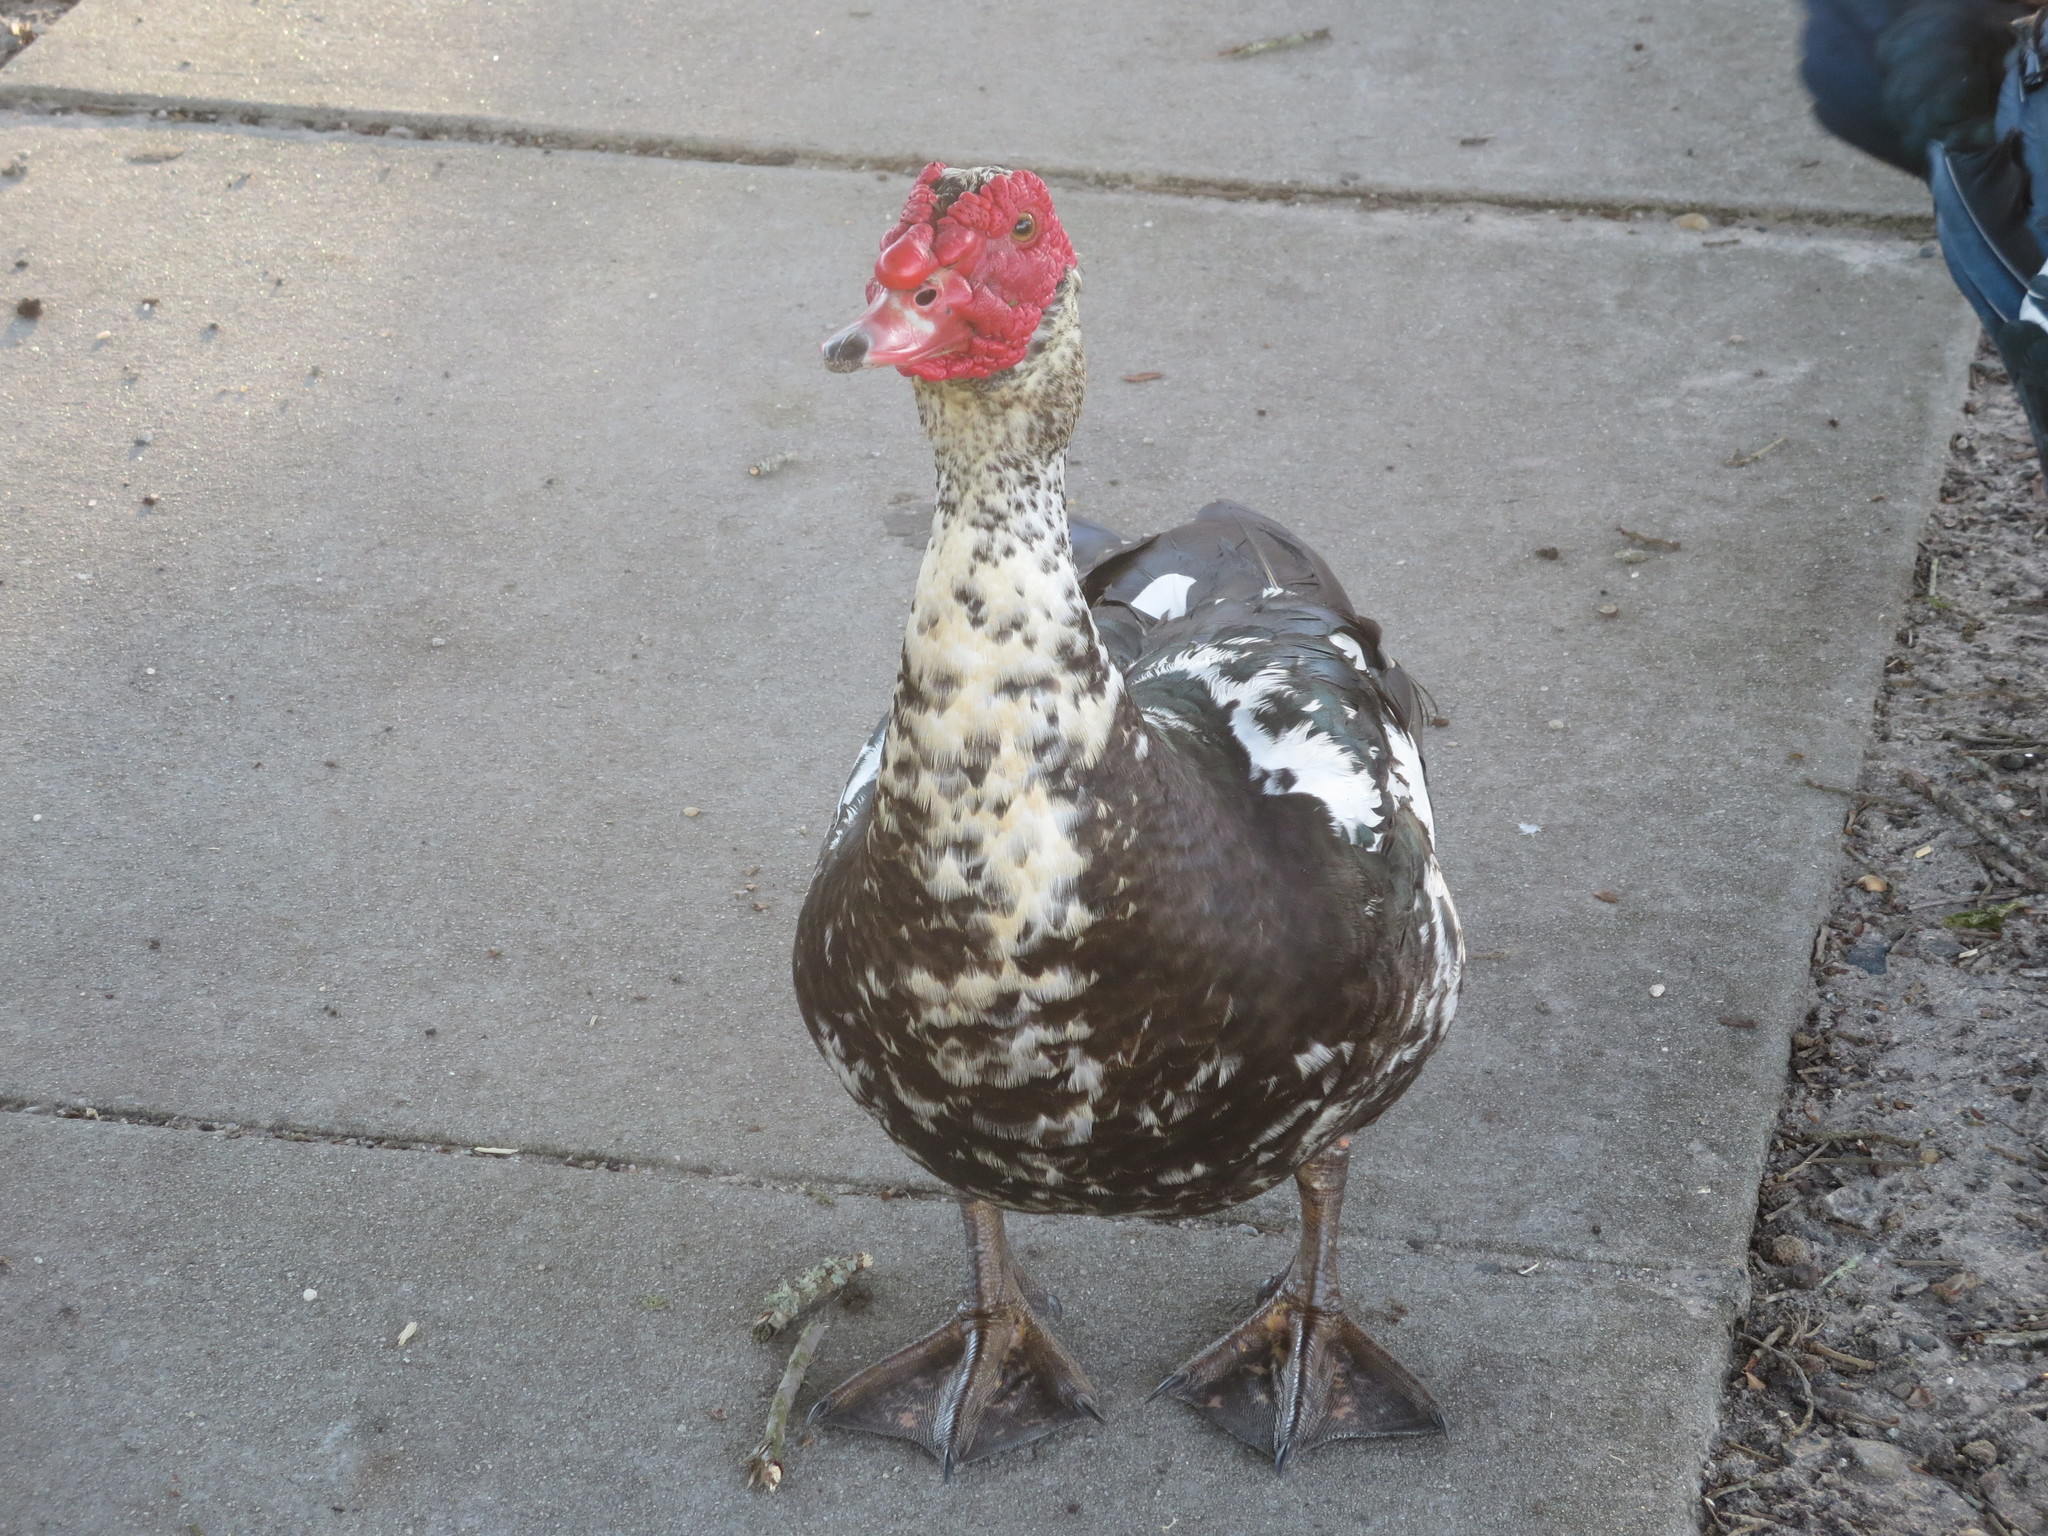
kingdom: Animalia
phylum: Chordata
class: Aves
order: Anseriformes
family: Anatidae
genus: Cairina
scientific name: Cairina moschata
